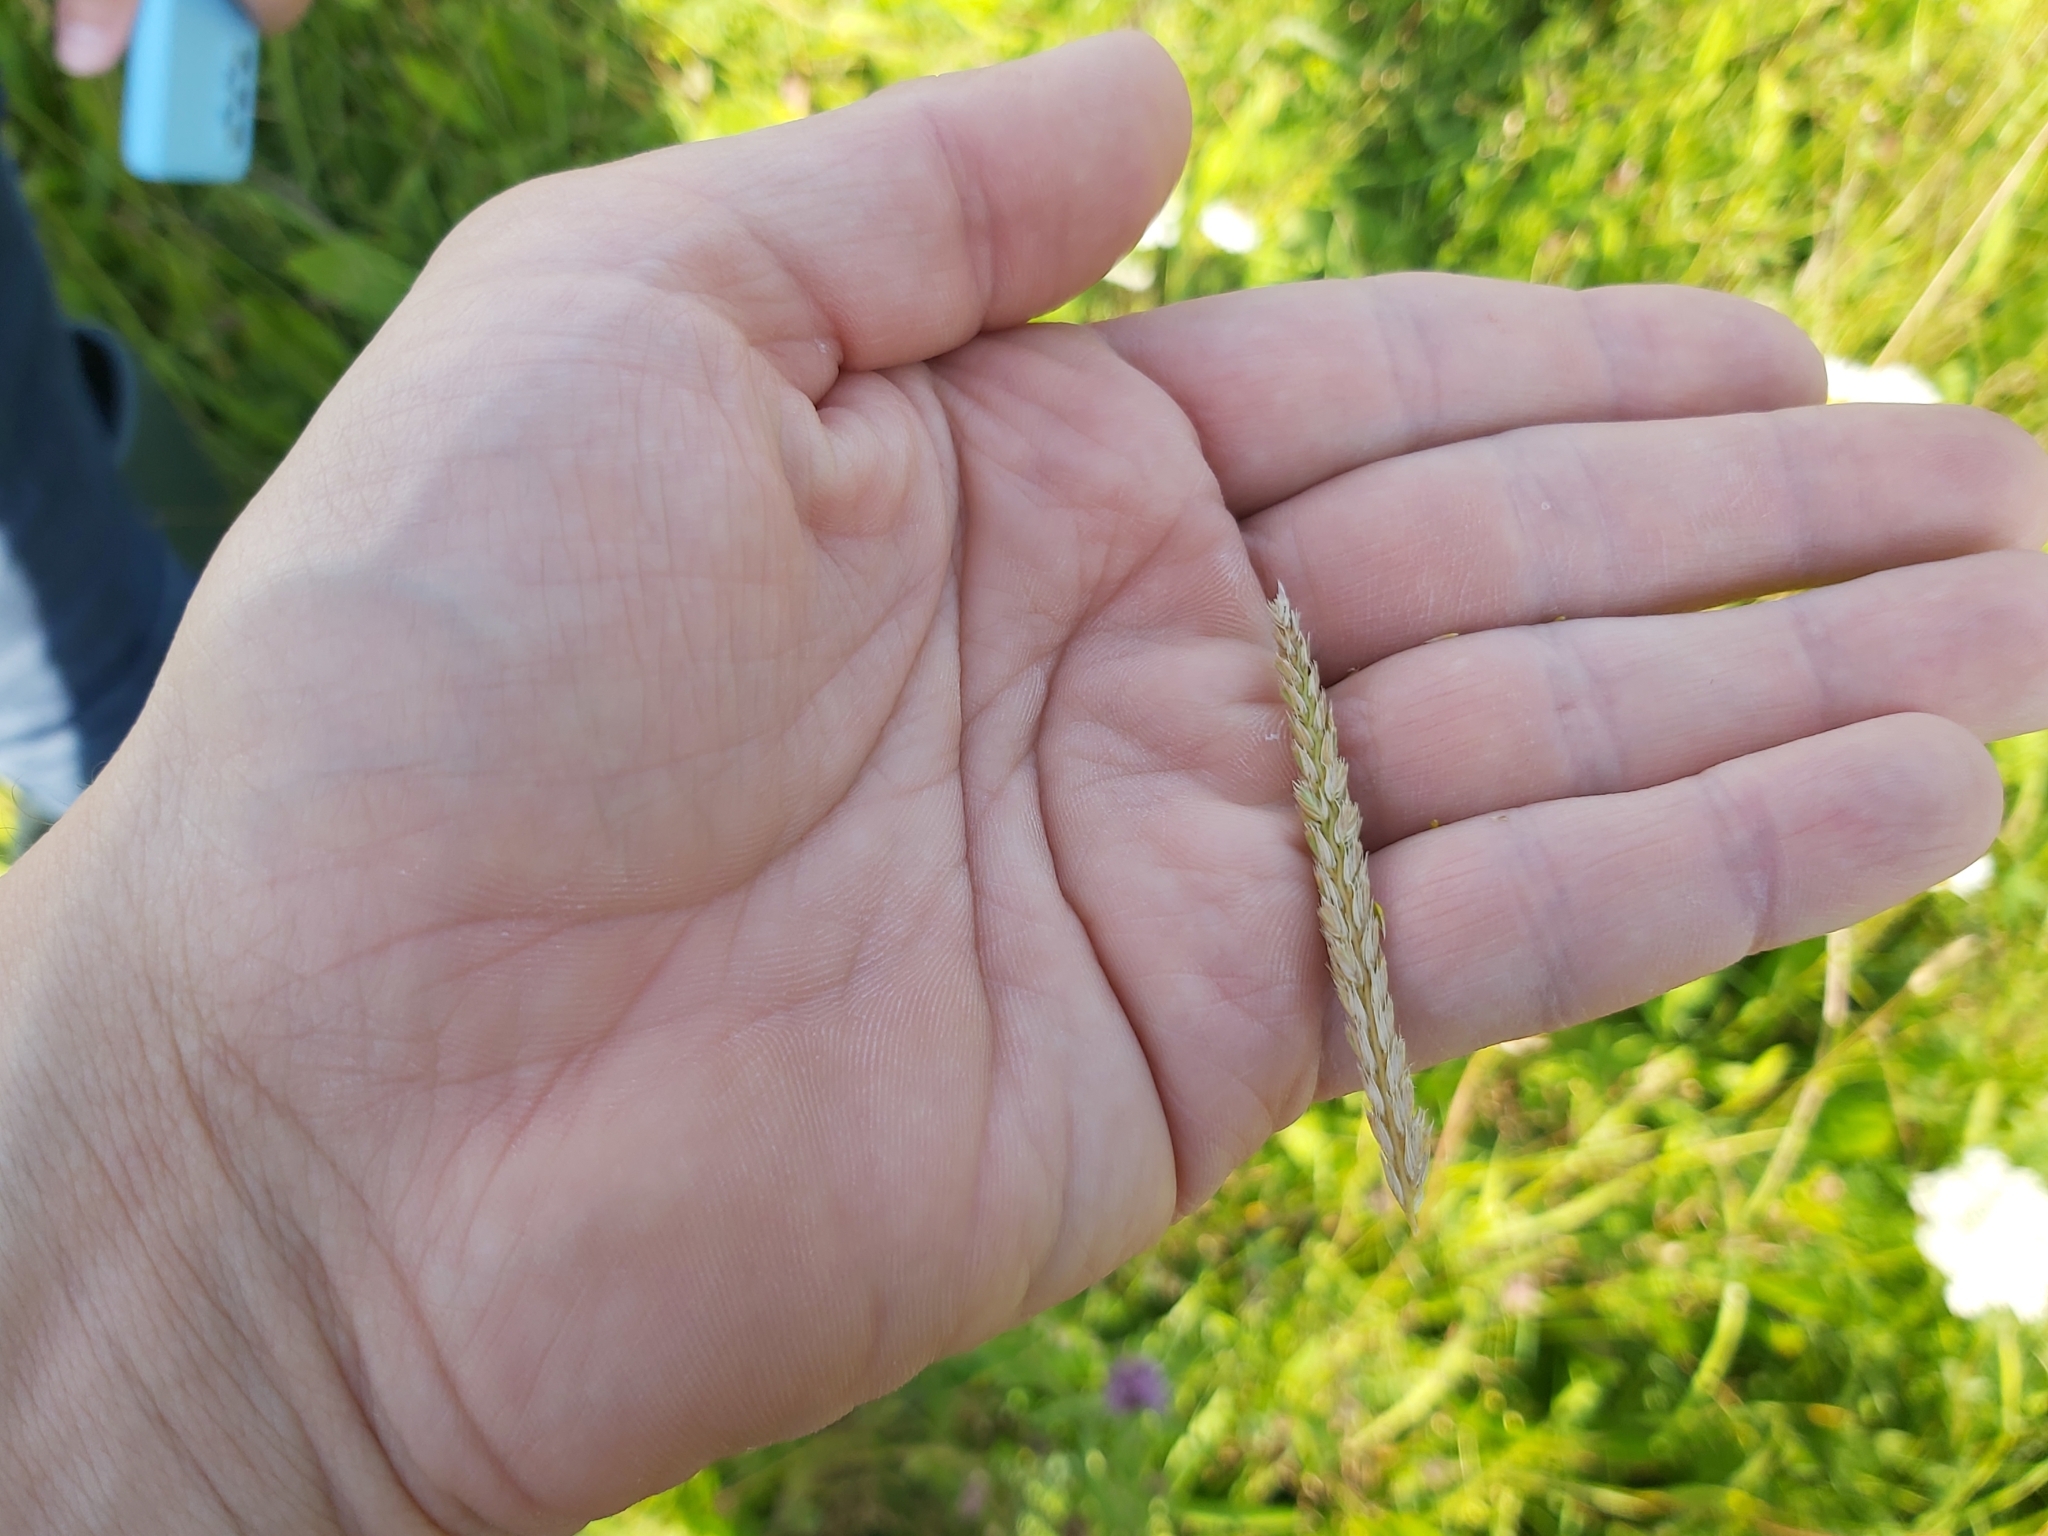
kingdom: Plantae
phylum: Tracheophyta
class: Liliopsida
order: Poales
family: Poaceae
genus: Cynosurus
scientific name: Cynosurus cristatus
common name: Crested dog's-tail
